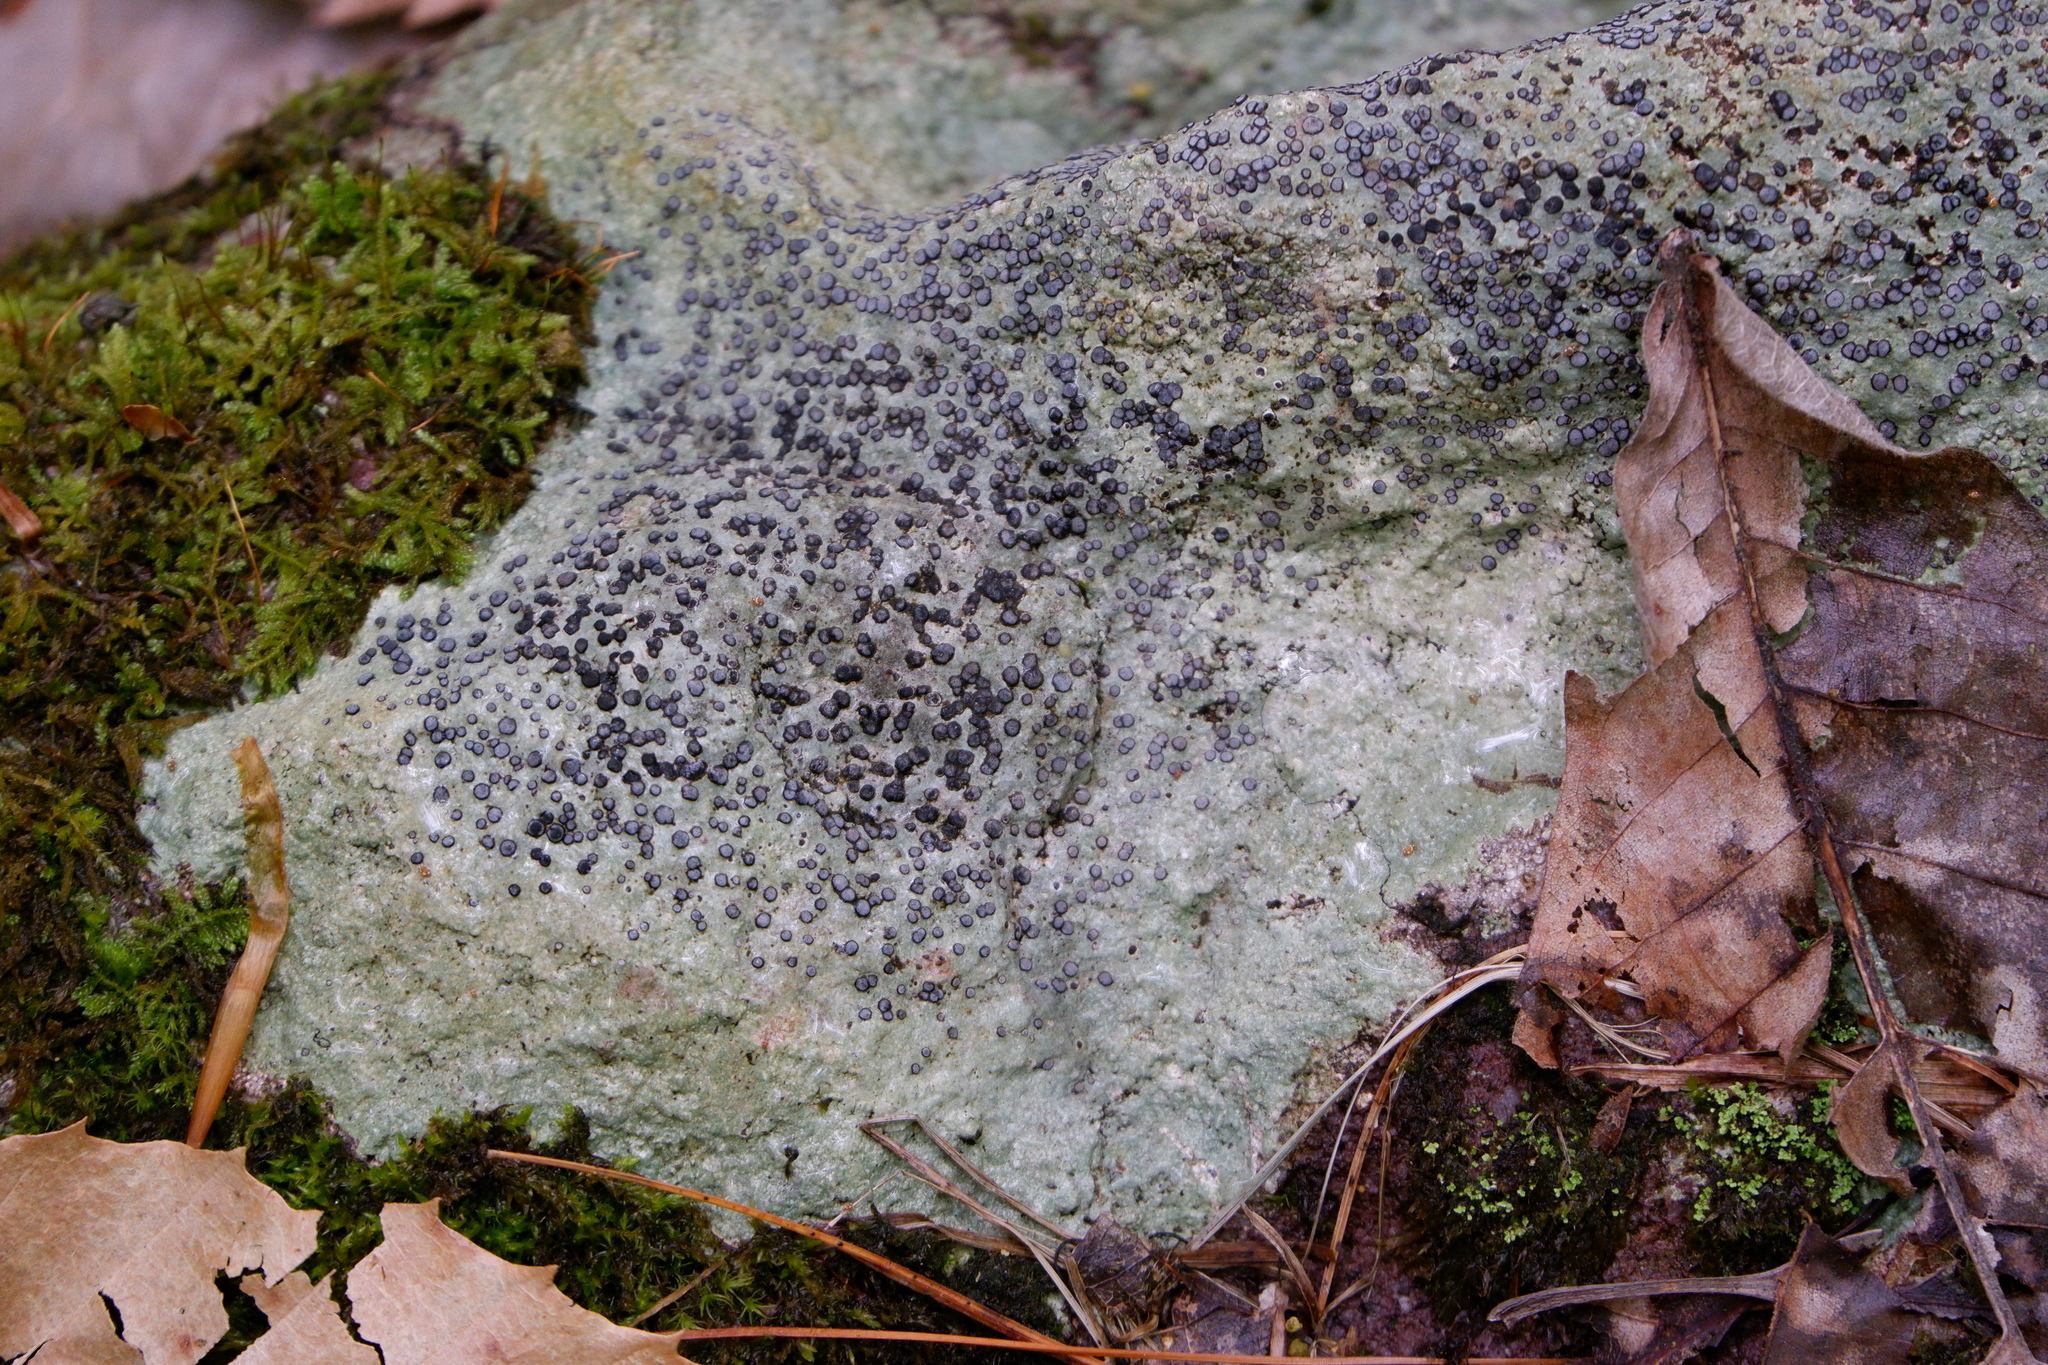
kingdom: Fungi
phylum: Ascomycota
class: Lecanoromycetes
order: Lecideales
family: Lecideaceae
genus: Porpidia
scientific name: Porpidia albocaerulescens
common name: Smokey-eyed boulder lichen
